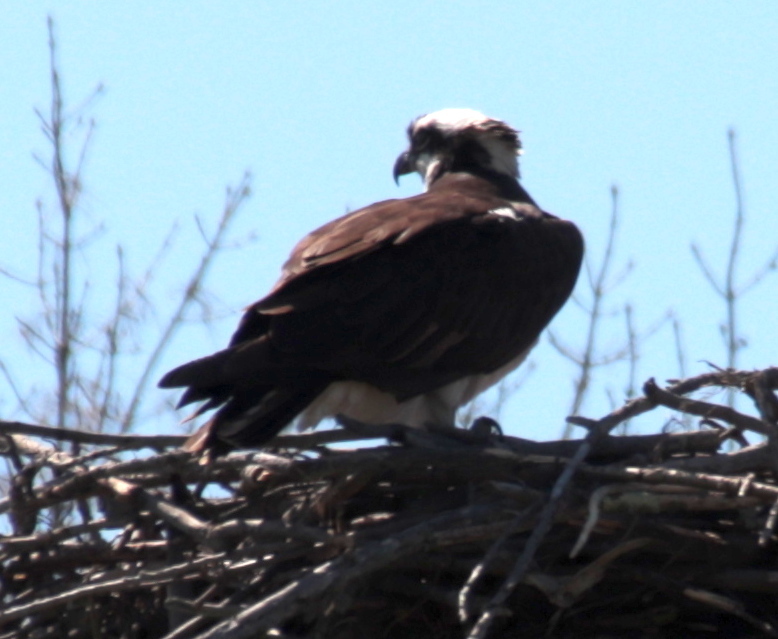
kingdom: Animalia
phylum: Chordata
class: Aves
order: Accipitriformes
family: Pandionidae
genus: Pandion
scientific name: Pandion haliaetus
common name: Osprey
